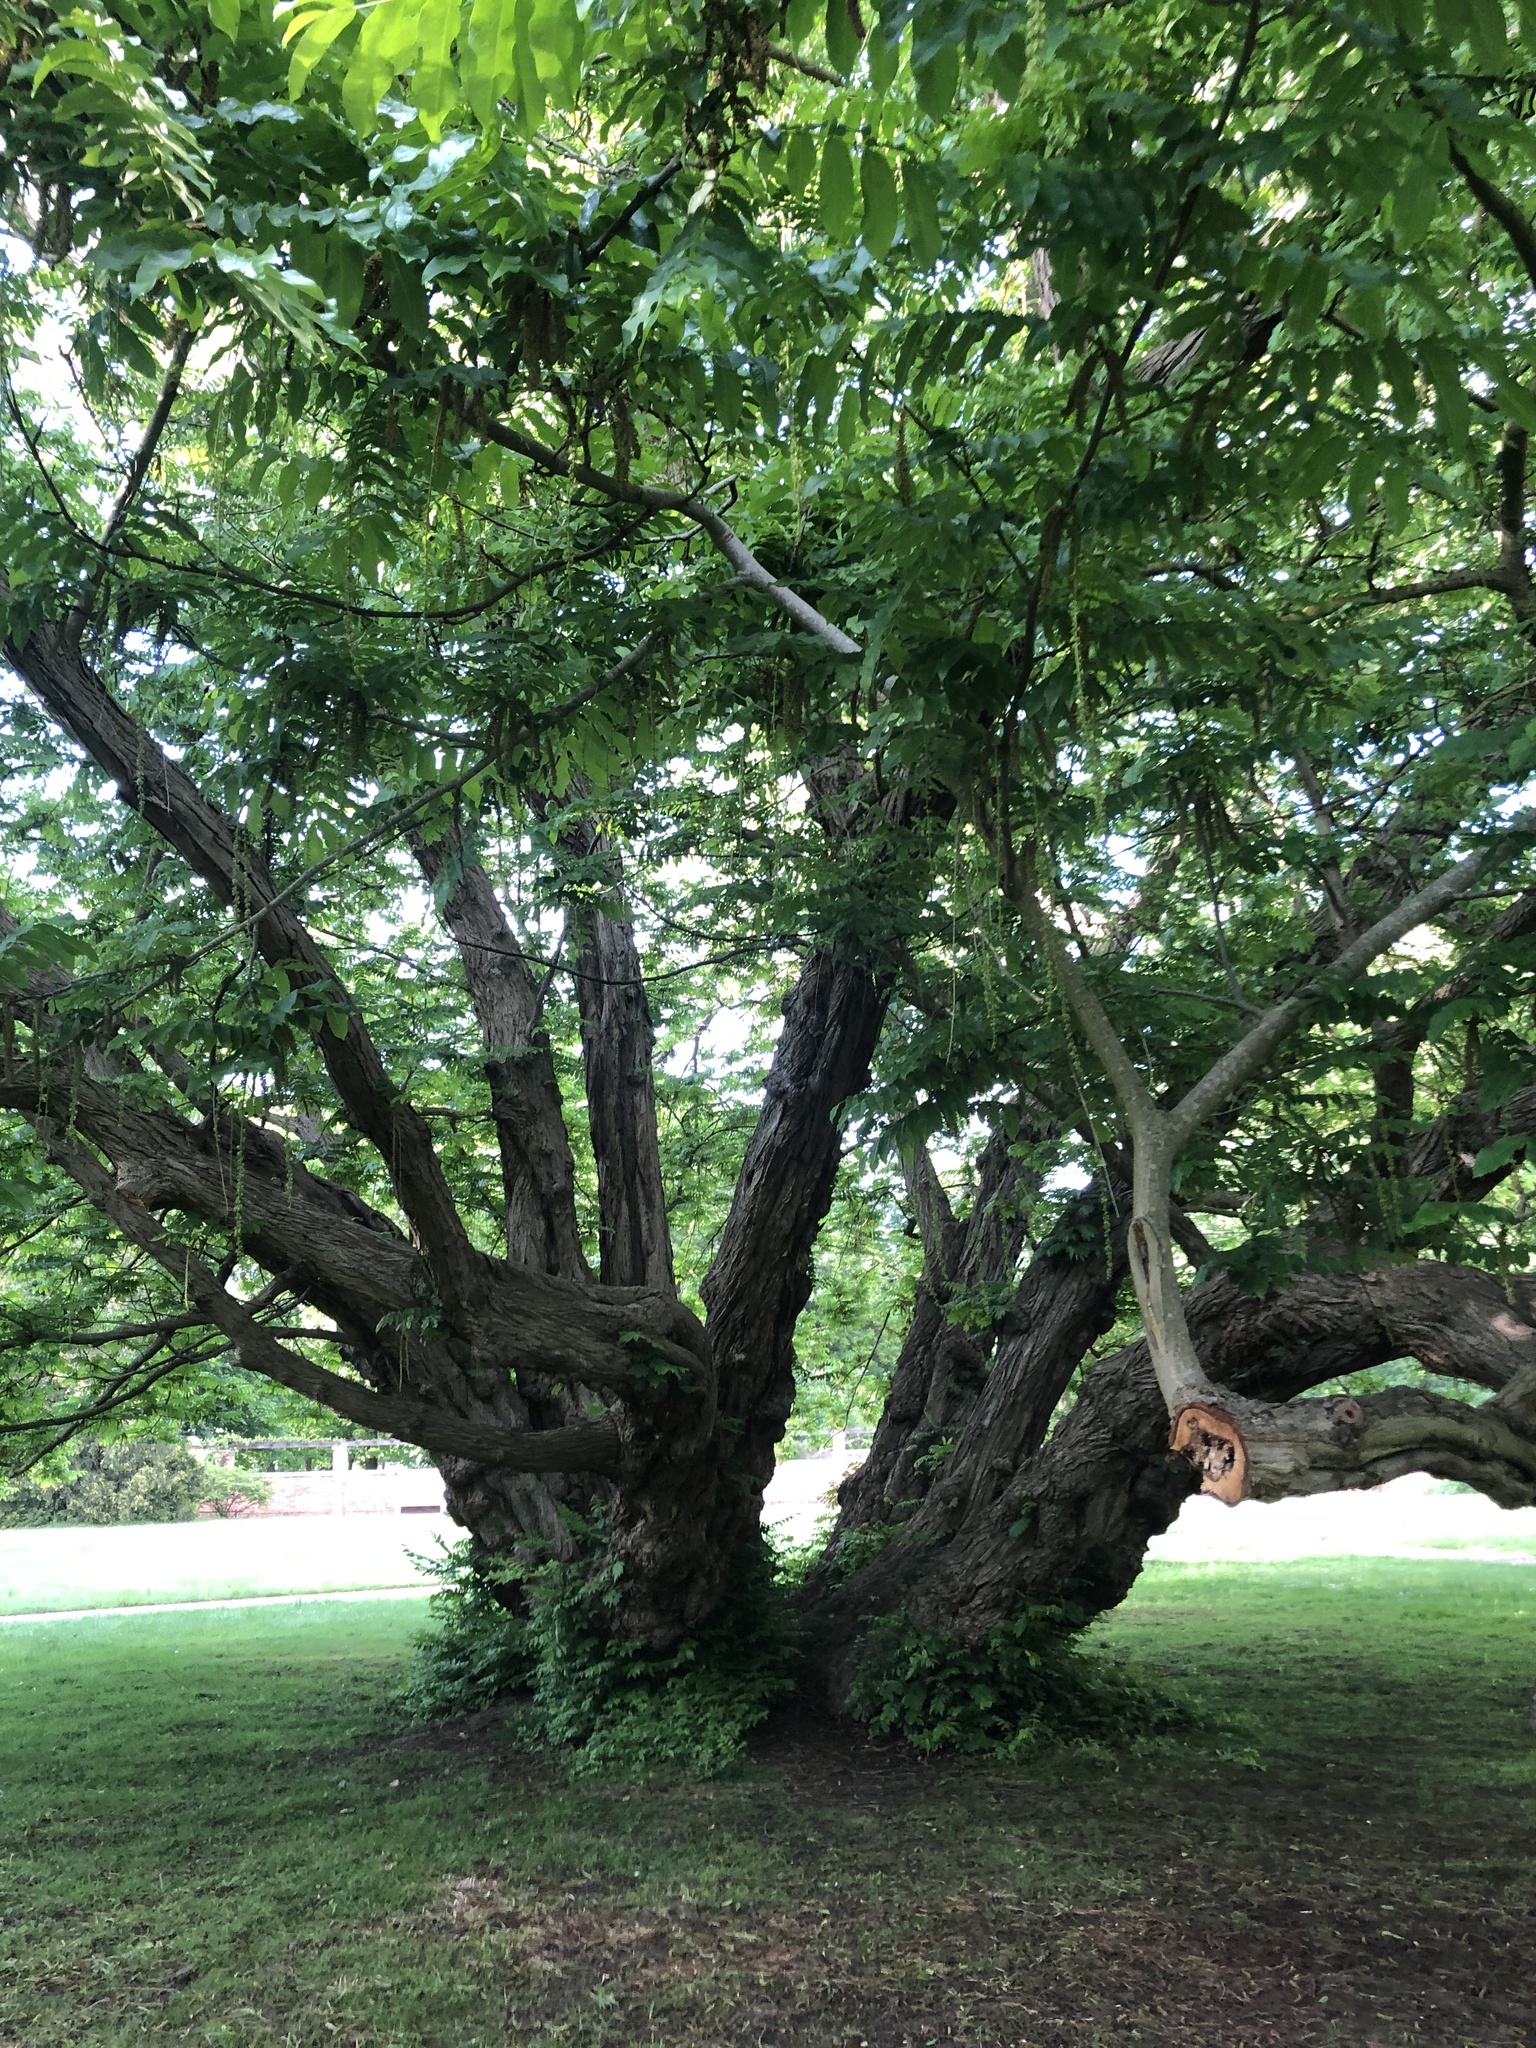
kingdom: Plantae
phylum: Tracheophyta
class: Magnoliopsida
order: Fagales
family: Juglandaceae
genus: Pterocarya
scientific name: Pterocarya fraxinifolia
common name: Caucasian wingnut
